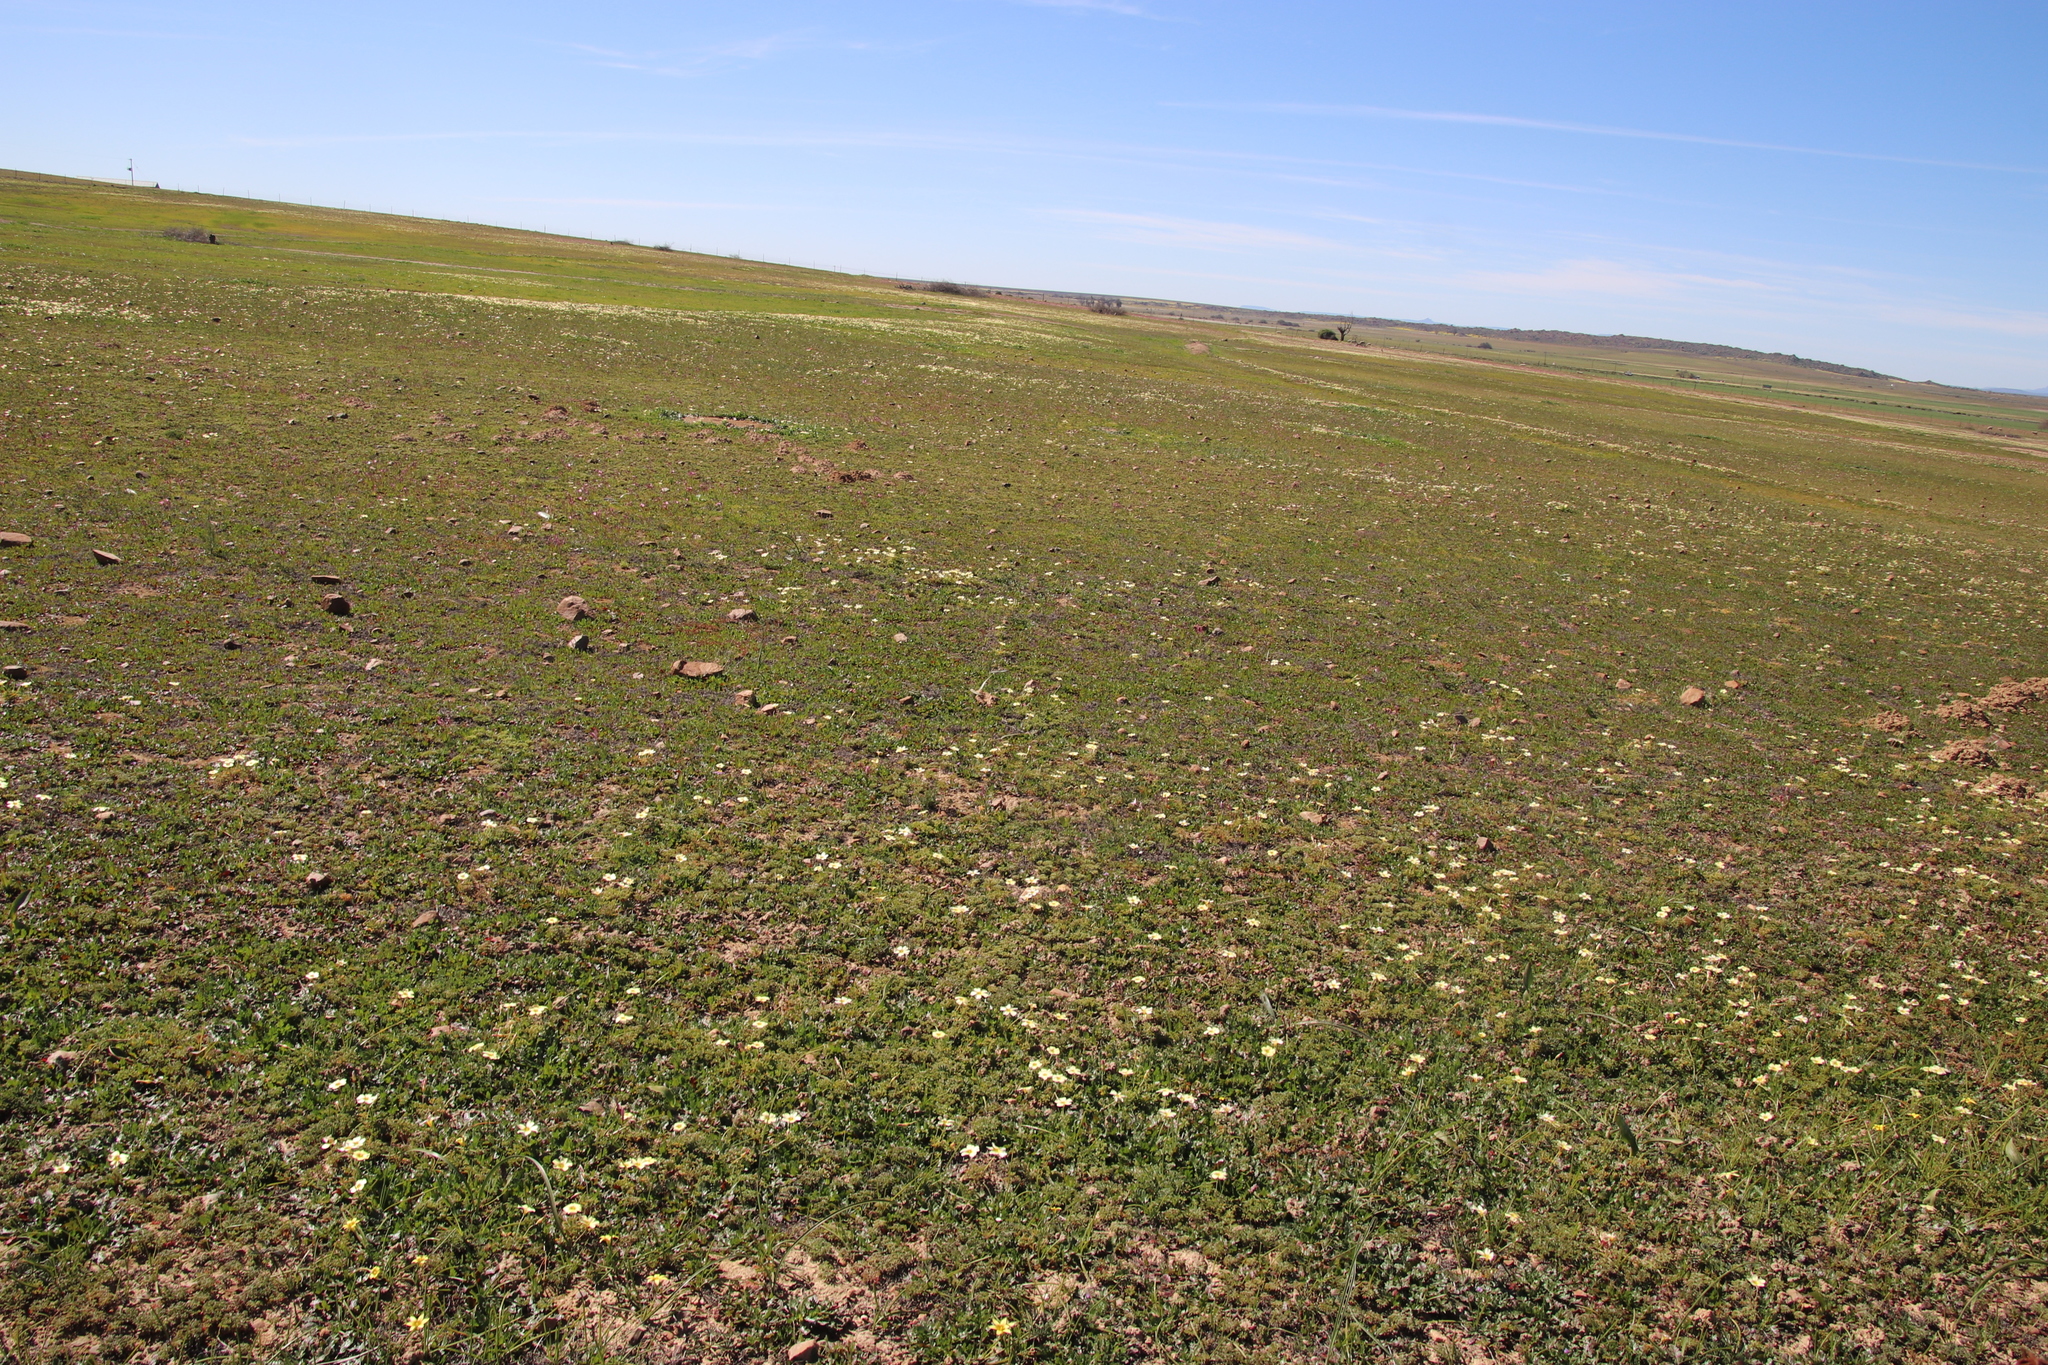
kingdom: Plantae
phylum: Tracheophyta
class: Magnoliopsida
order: Oxalidales
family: Oxalidaceae
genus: Oxalis
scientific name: Oxalis obtusa
